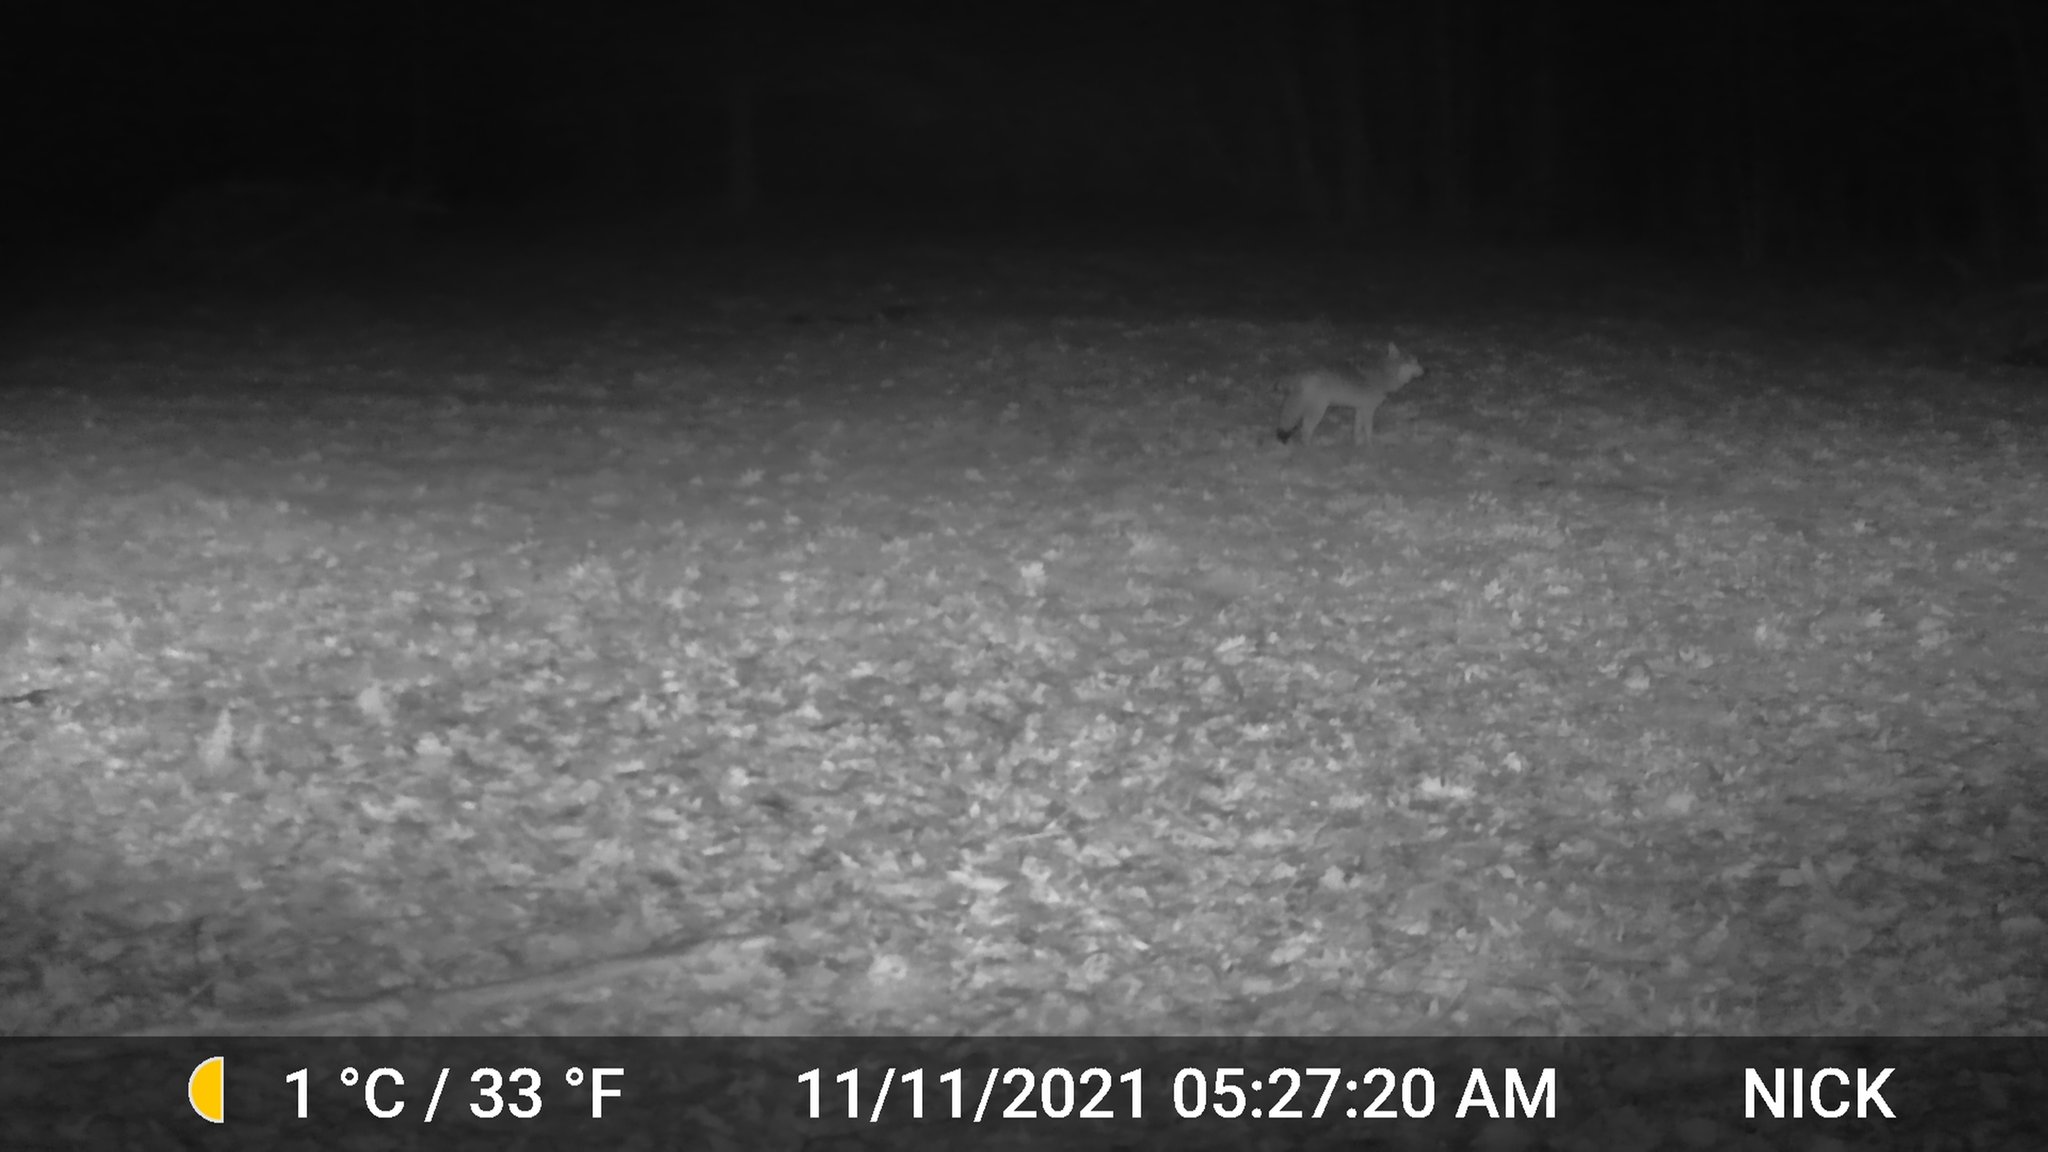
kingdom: Animalia
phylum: Chordata
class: Mammalia
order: Carnivora
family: Canidae
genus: Canis
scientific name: Canis latrans
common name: Coyote
